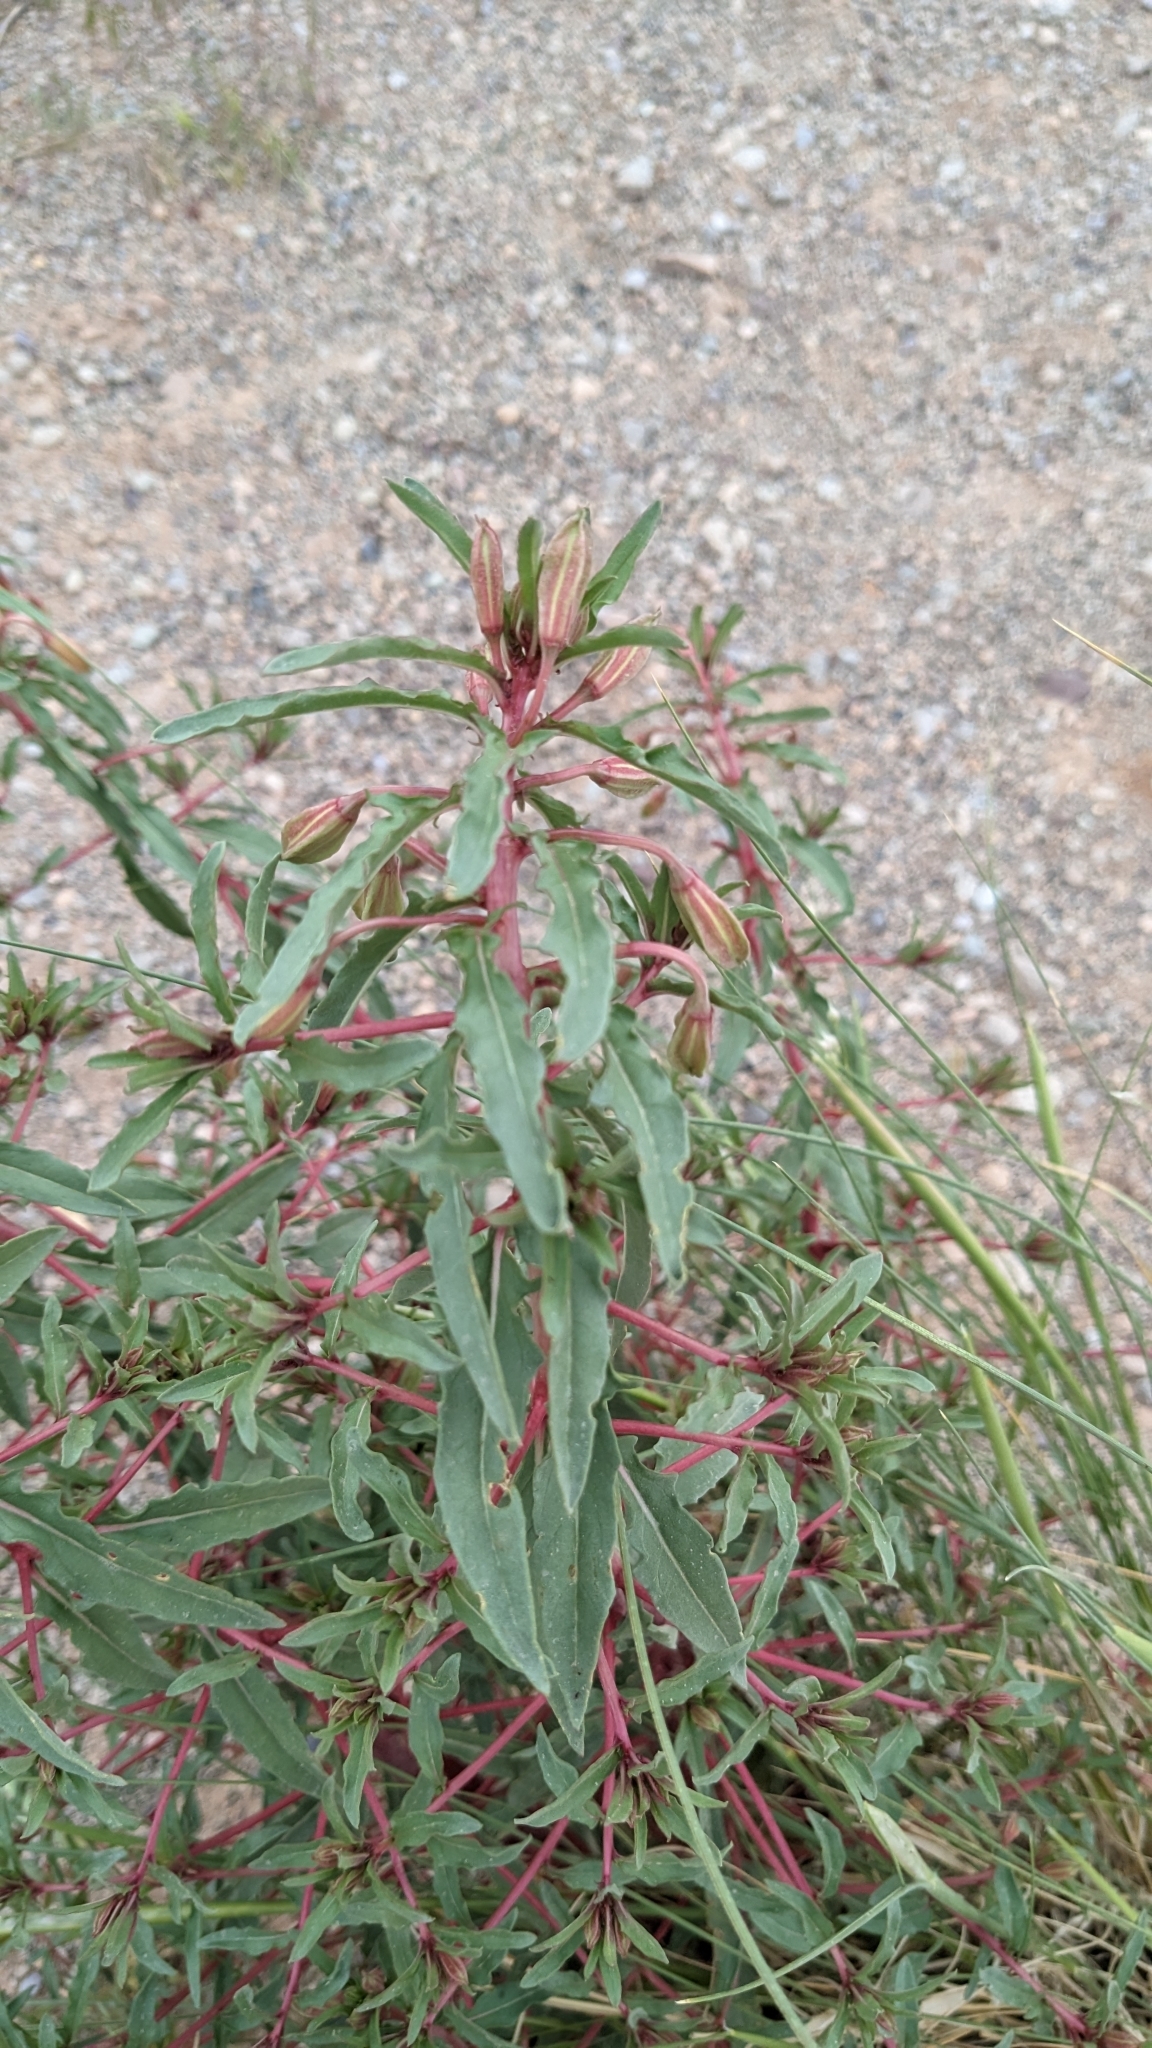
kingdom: Plantae
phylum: Tracheophyta
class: Magnoliopsida
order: Myrtales
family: Onagraceae
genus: Oenothera
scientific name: Oenothera pallida
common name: Pale evening-primrose
